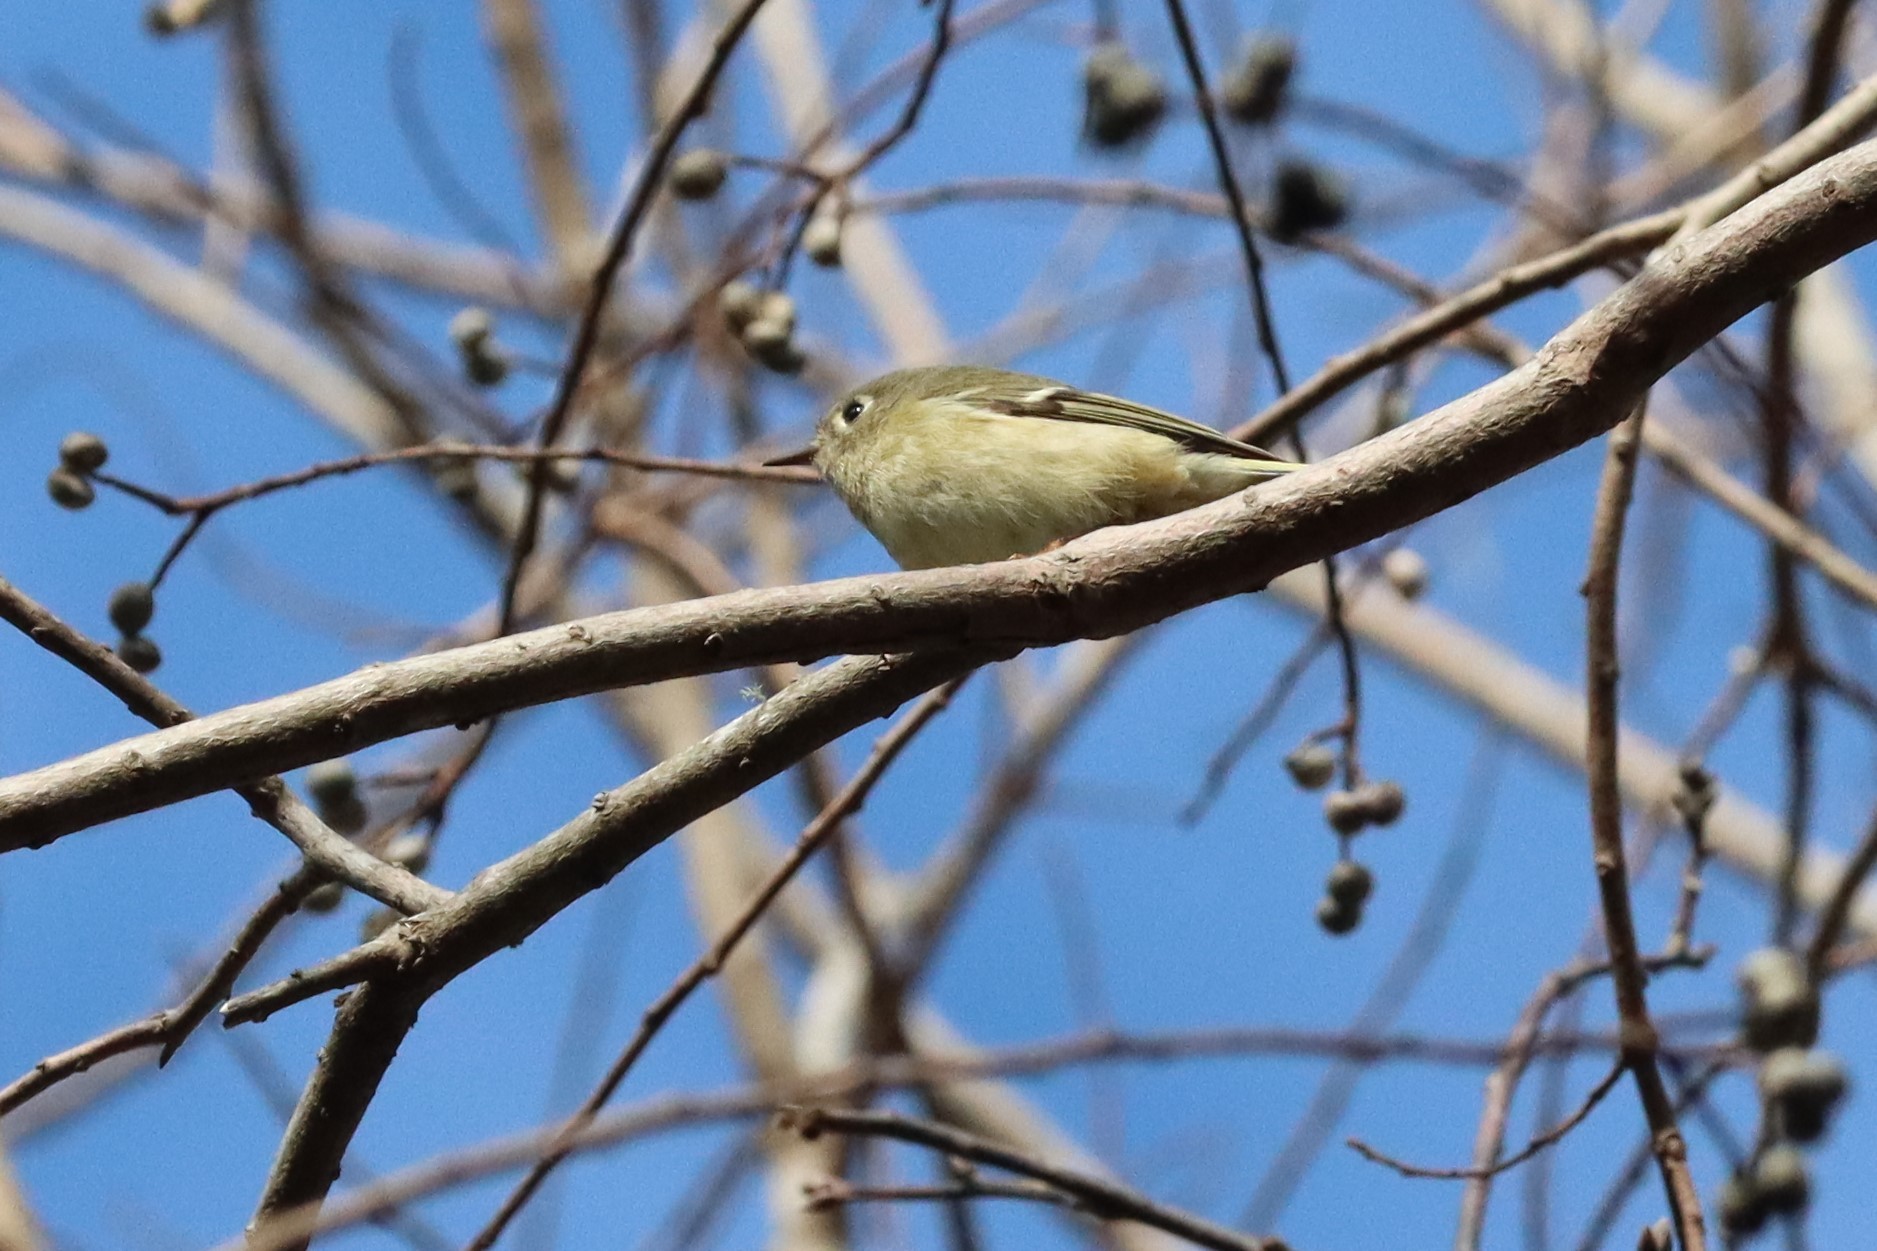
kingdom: Animalia
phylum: Chordata
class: Aves
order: Passeriformes
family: Regulidae
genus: Regulus
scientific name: Regulus calendula
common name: Ruby-crowned kinglet
